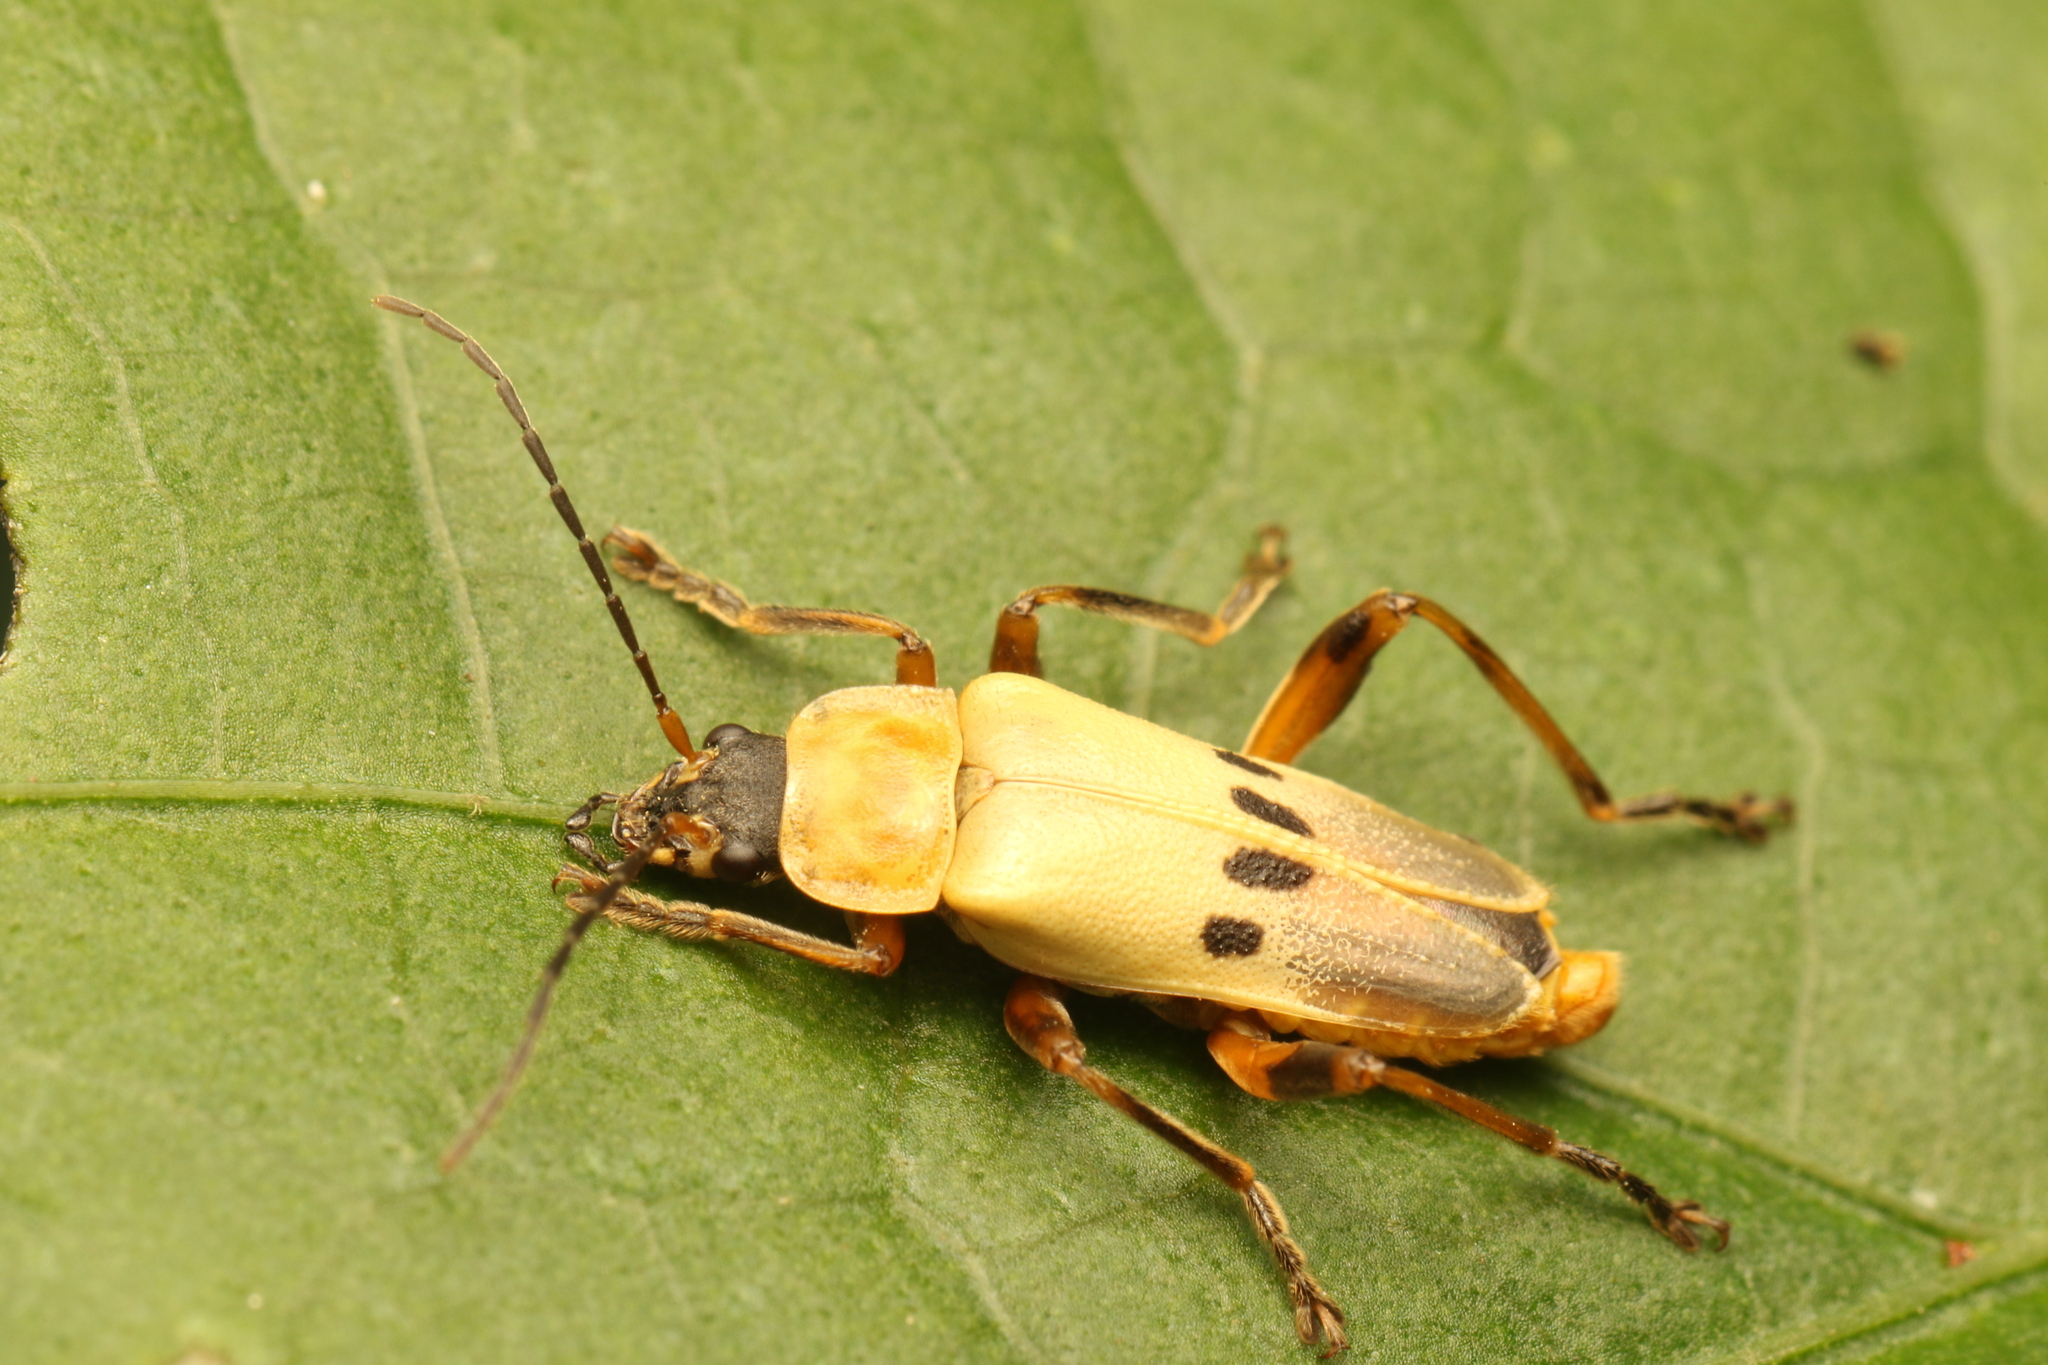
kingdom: Animalia
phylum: Arthropoda
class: Insecta
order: Coleoptera
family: Cantharidae
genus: Chauliognathus
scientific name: Chauliognathus
